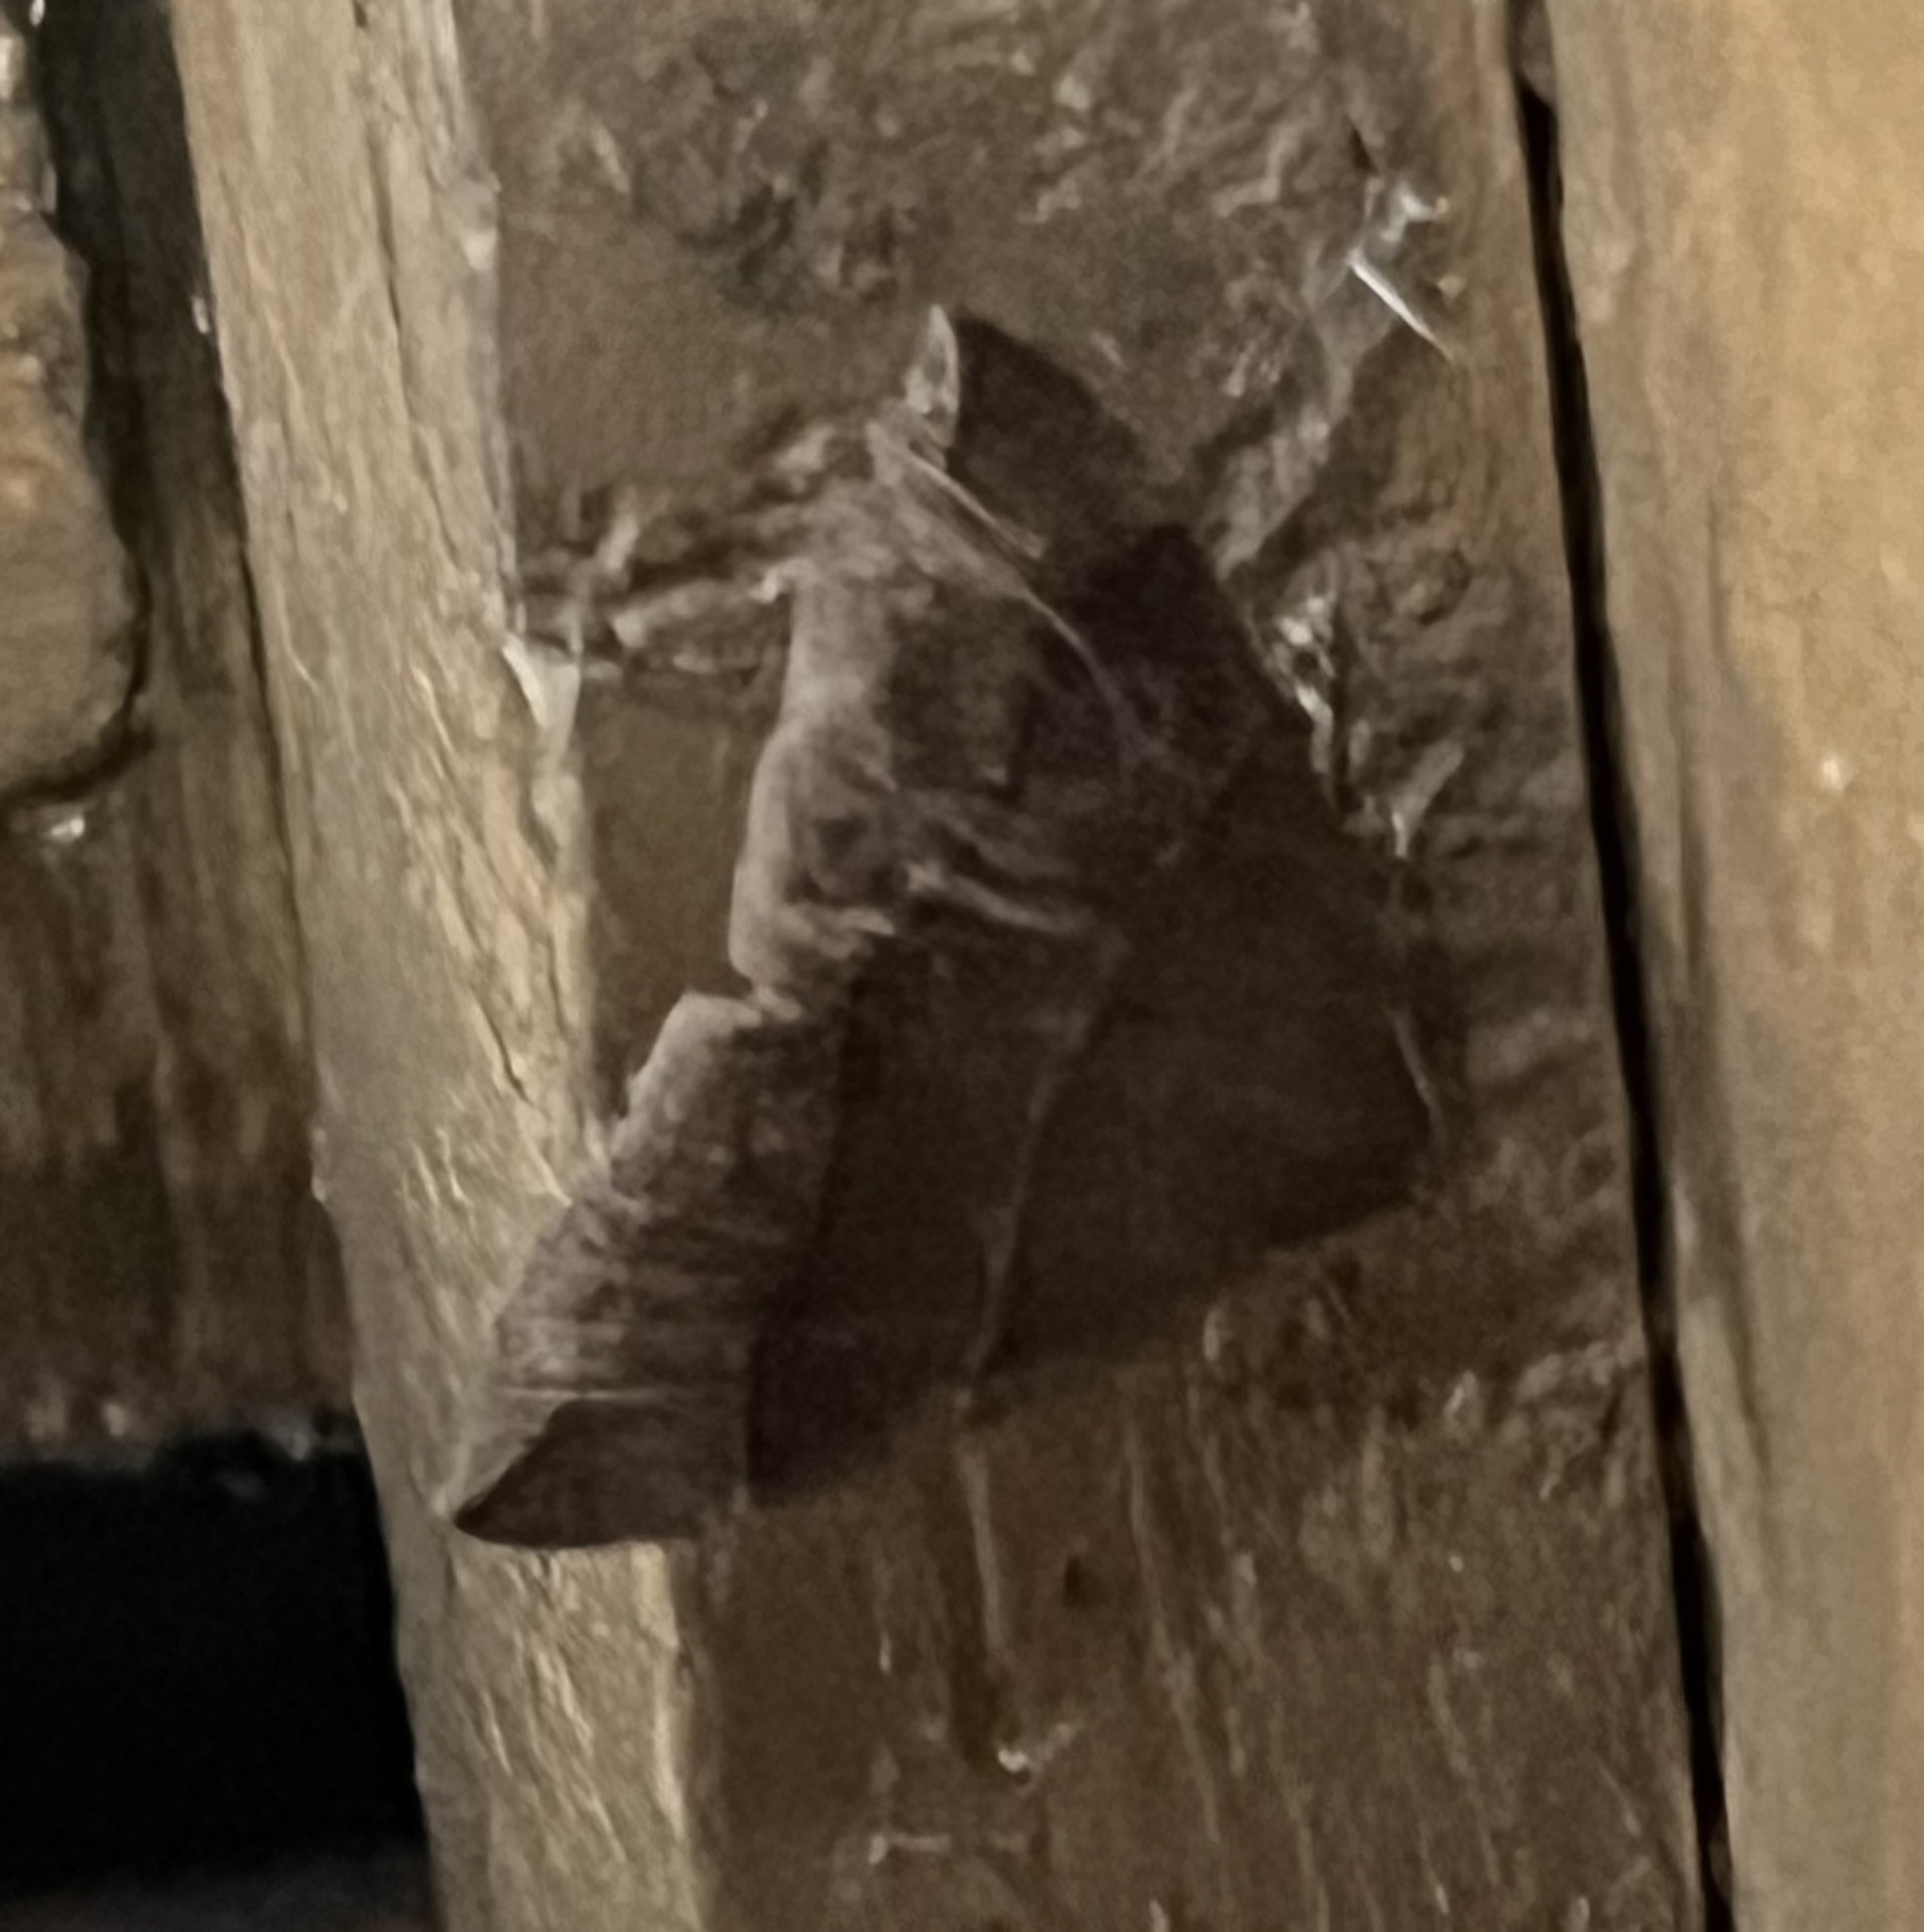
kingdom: Animalia
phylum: Arthropoda
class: Insecta
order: Lepidoptera
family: Erebidae
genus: Parallelia
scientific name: Parallelia bistriaris
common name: Maple looper moth
